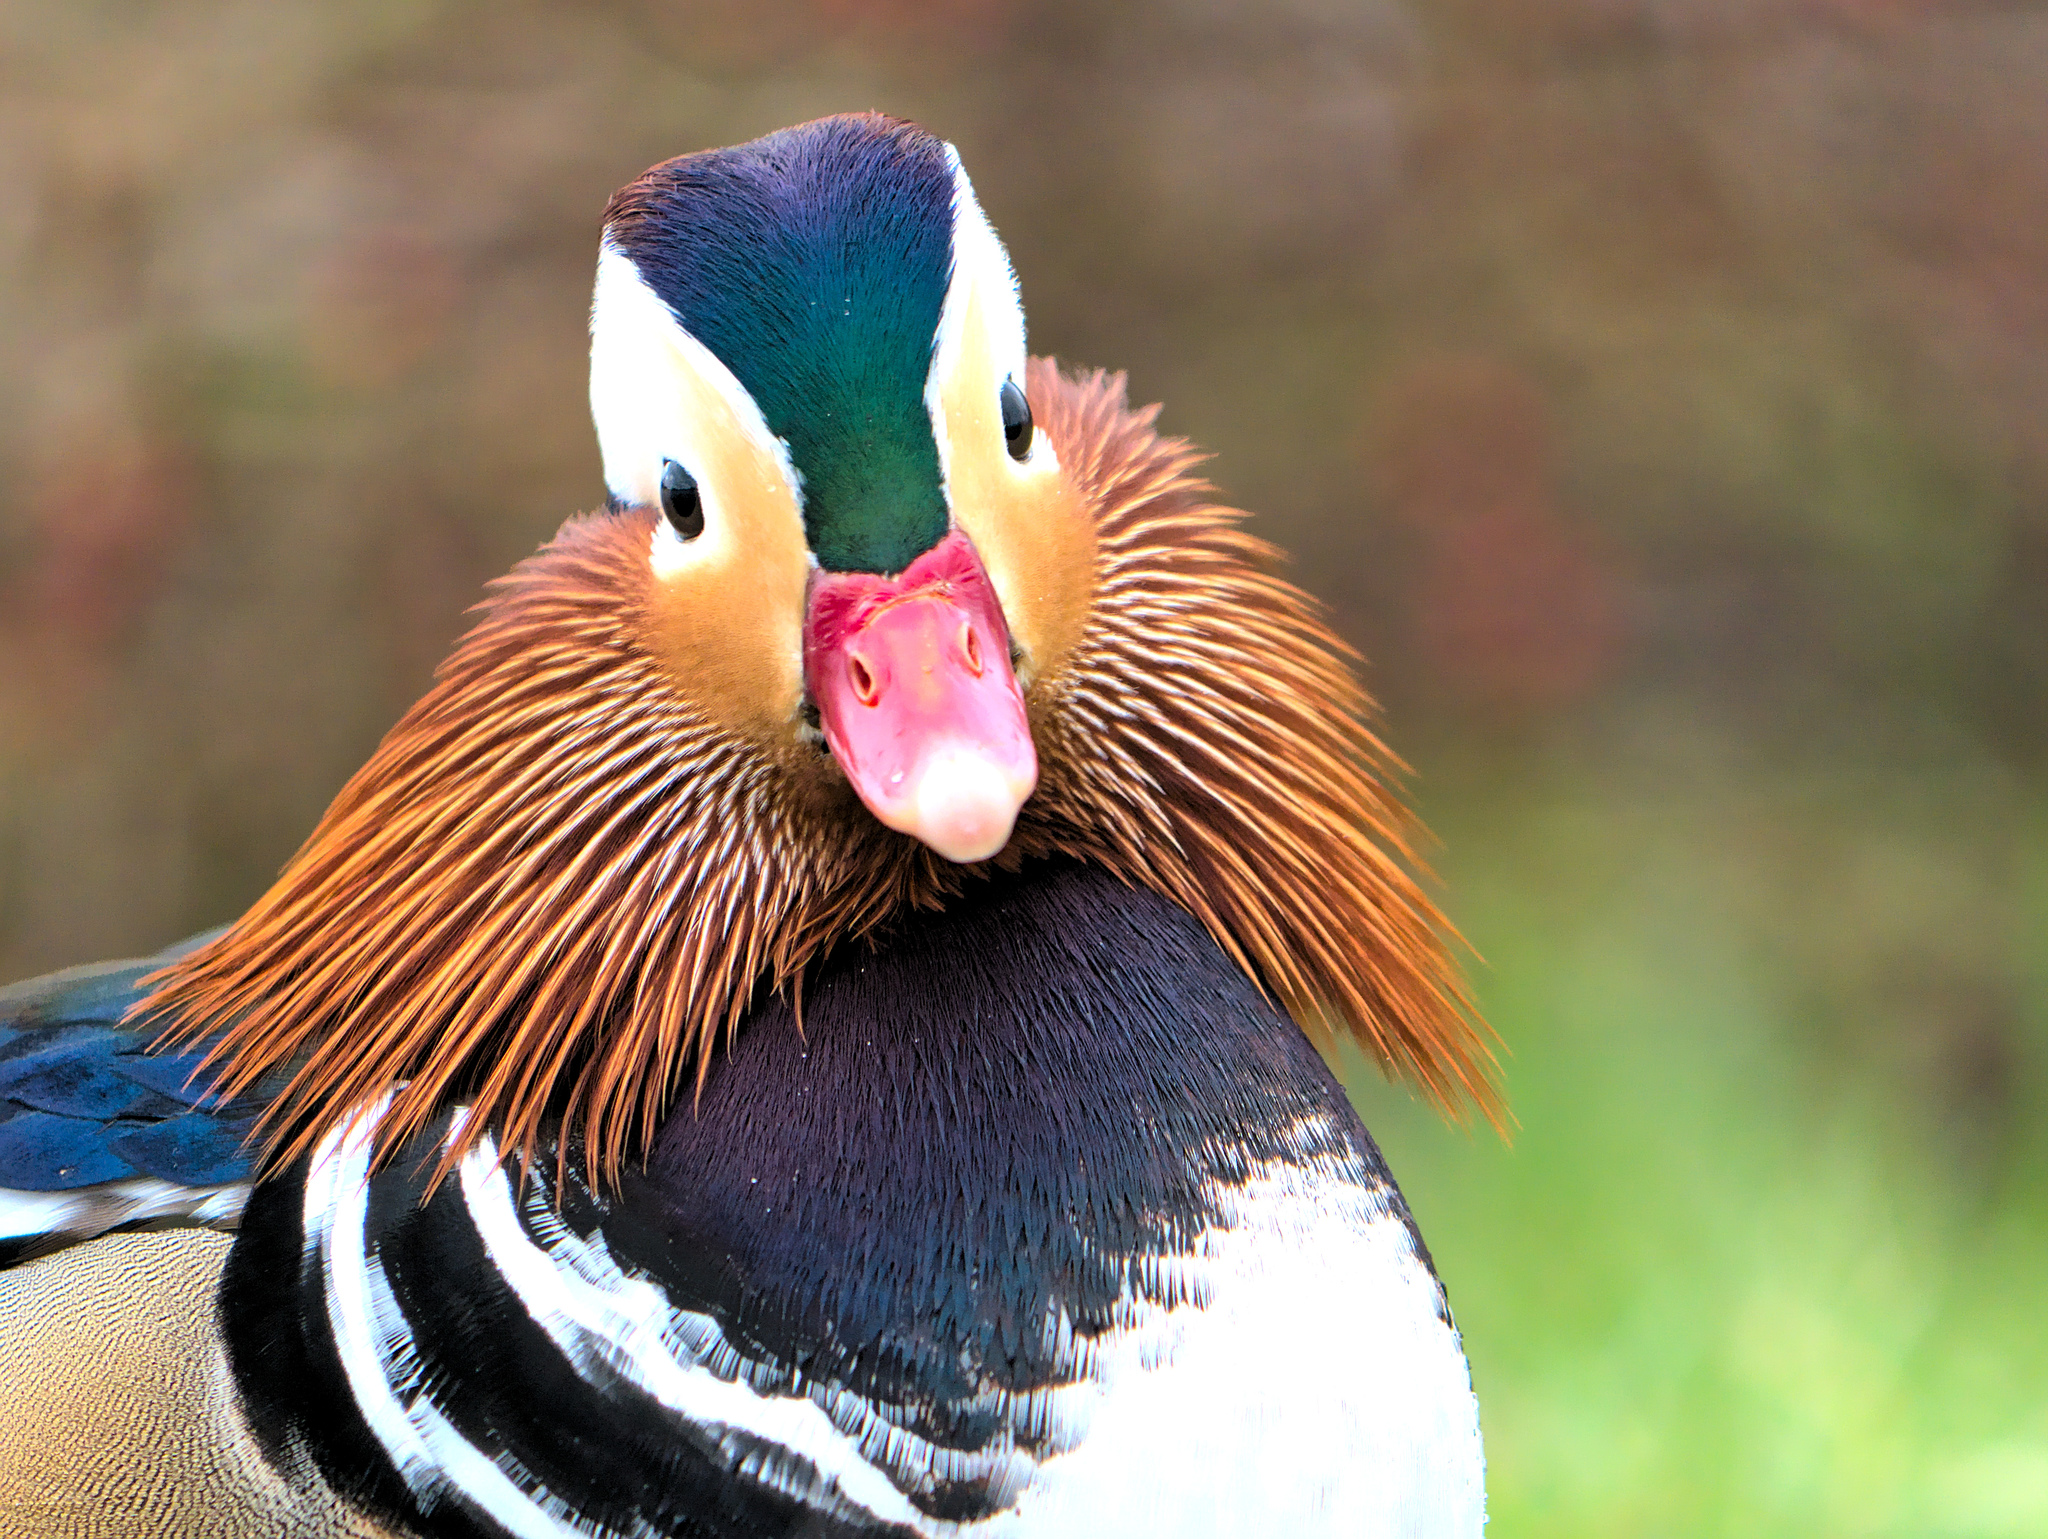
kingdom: Animalia
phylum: Chordata
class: Aves
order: Anseriformes
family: Anatidae
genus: Aix
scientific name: Aix galericulata
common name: Mandarin duck
